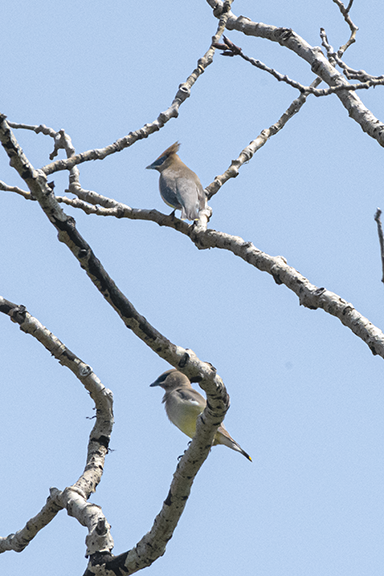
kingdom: Animalia
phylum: Chordata
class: Aves
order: Passeriformes
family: Bombycillidae
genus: Bombycilla
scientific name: Bombycilla cedrorum
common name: Cedar waxwing
